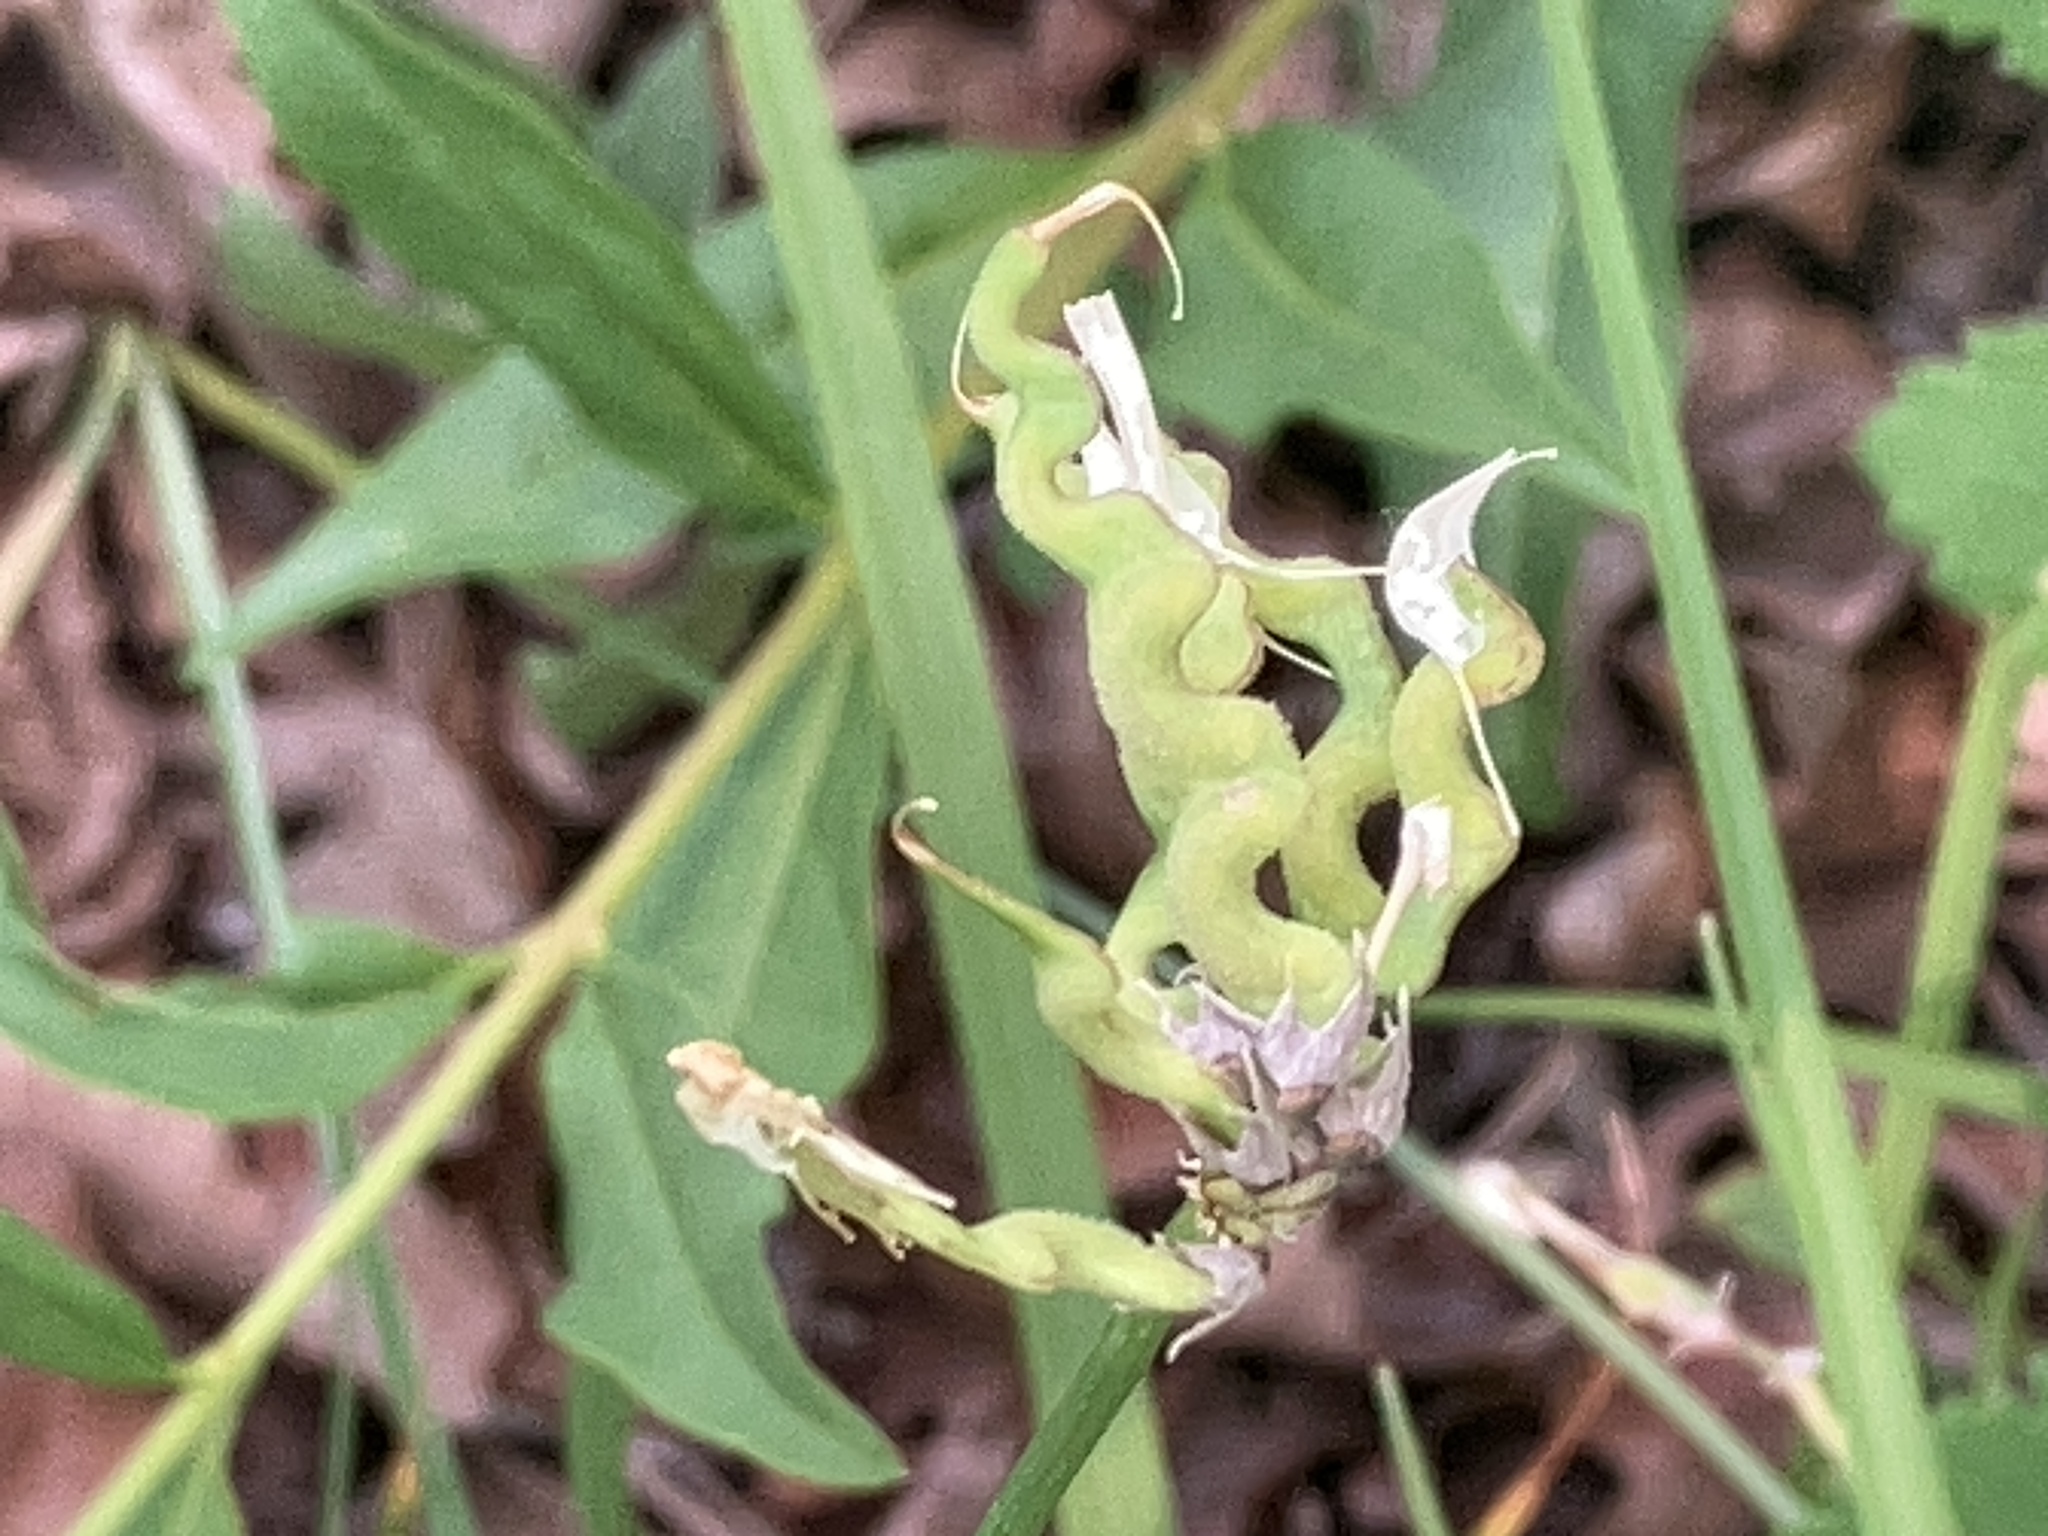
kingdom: Plantae
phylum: Tracheophyta
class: Magnoliopsida
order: Fabales
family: Fabaceae
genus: Hippocrepis
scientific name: Hippocrepis comosa
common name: Horseshoe vetch
